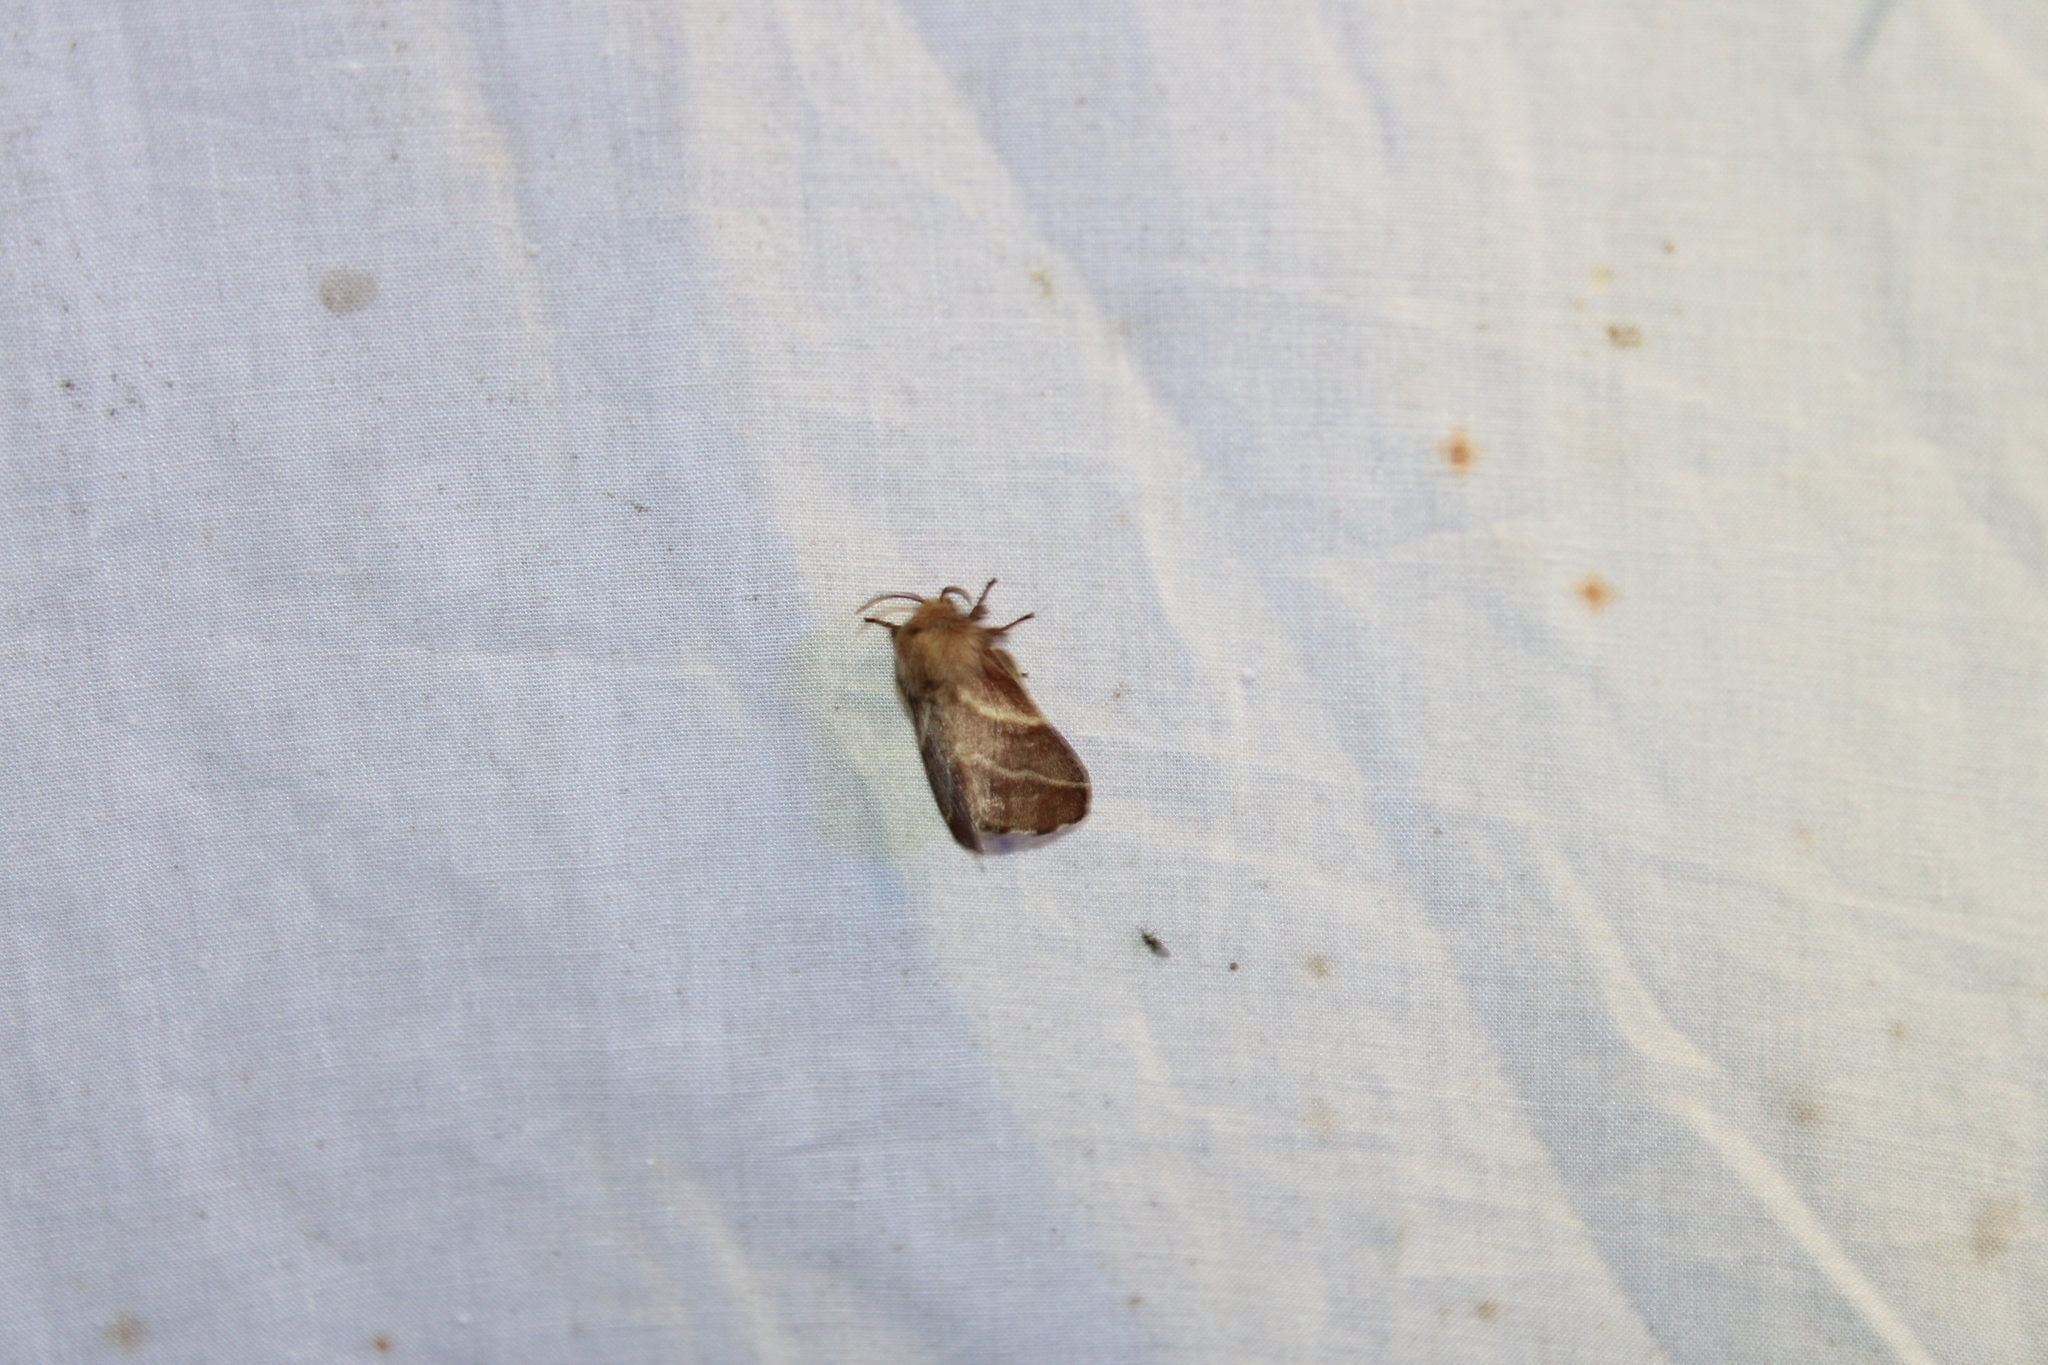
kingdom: Animalia
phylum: Arthropoda
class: Insecta
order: Lepidoptera
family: Lasiocampidae
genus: Malacosoma
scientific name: Malacosoma americana
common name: Eastern tent caterpillar moth
